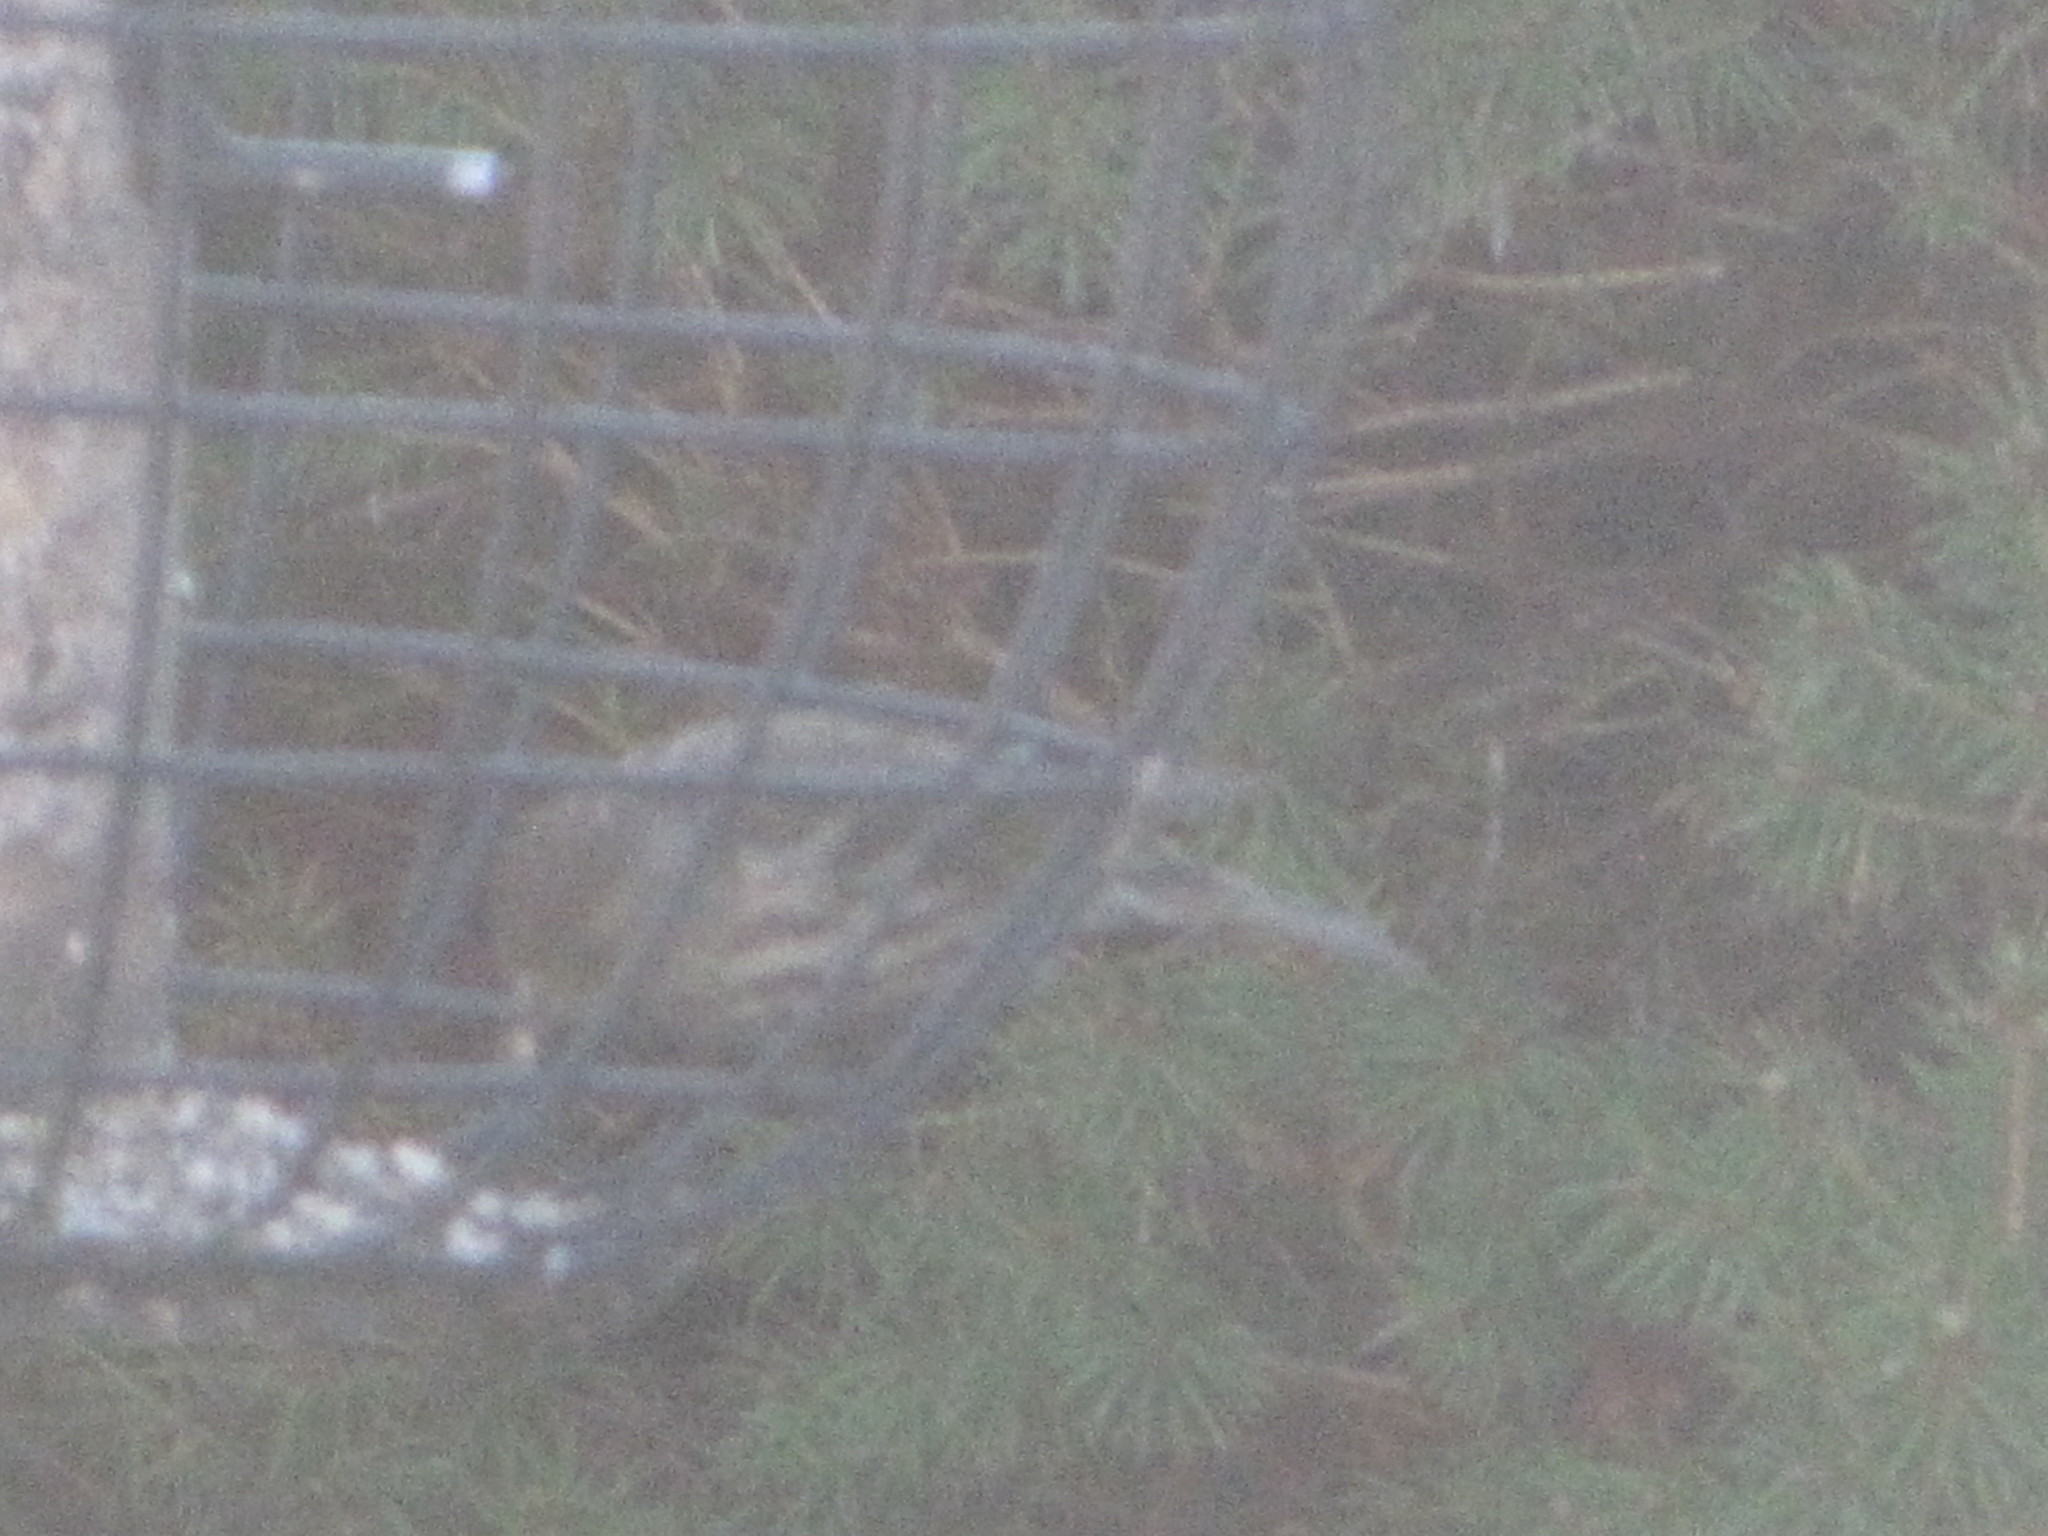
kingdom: Animalia
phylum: Chordata
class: Aves
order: Passeriformes
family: Fringillidae
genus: Spinus
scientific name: Spinus pinus
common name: Pine siskin
